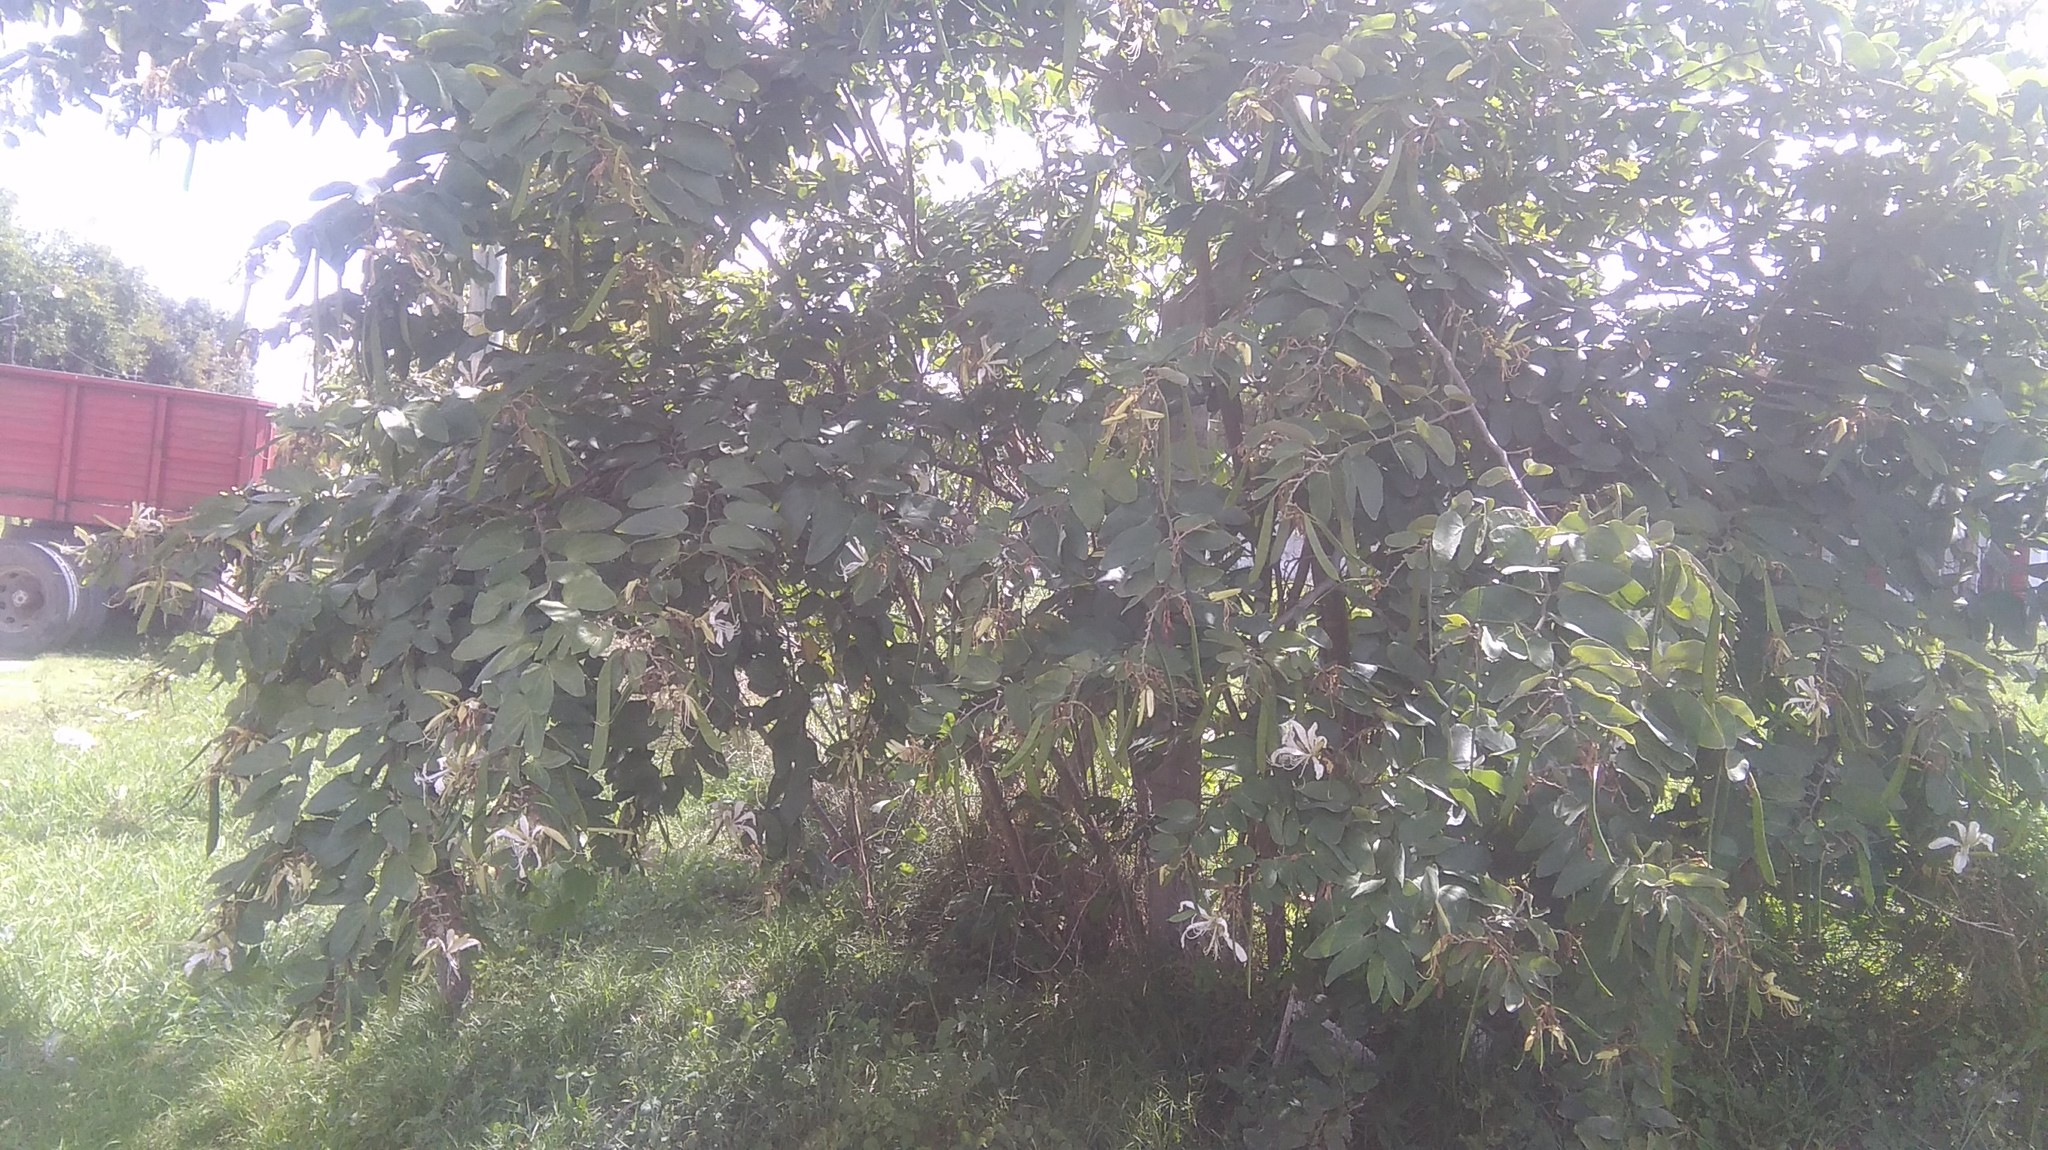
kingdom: Plantae
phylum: Tracheophyta
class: Magnoliopsida
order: Fabales
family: Fabaceae
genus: Bauhinia
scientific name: Bauhinia forficata
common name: Orchid tree
